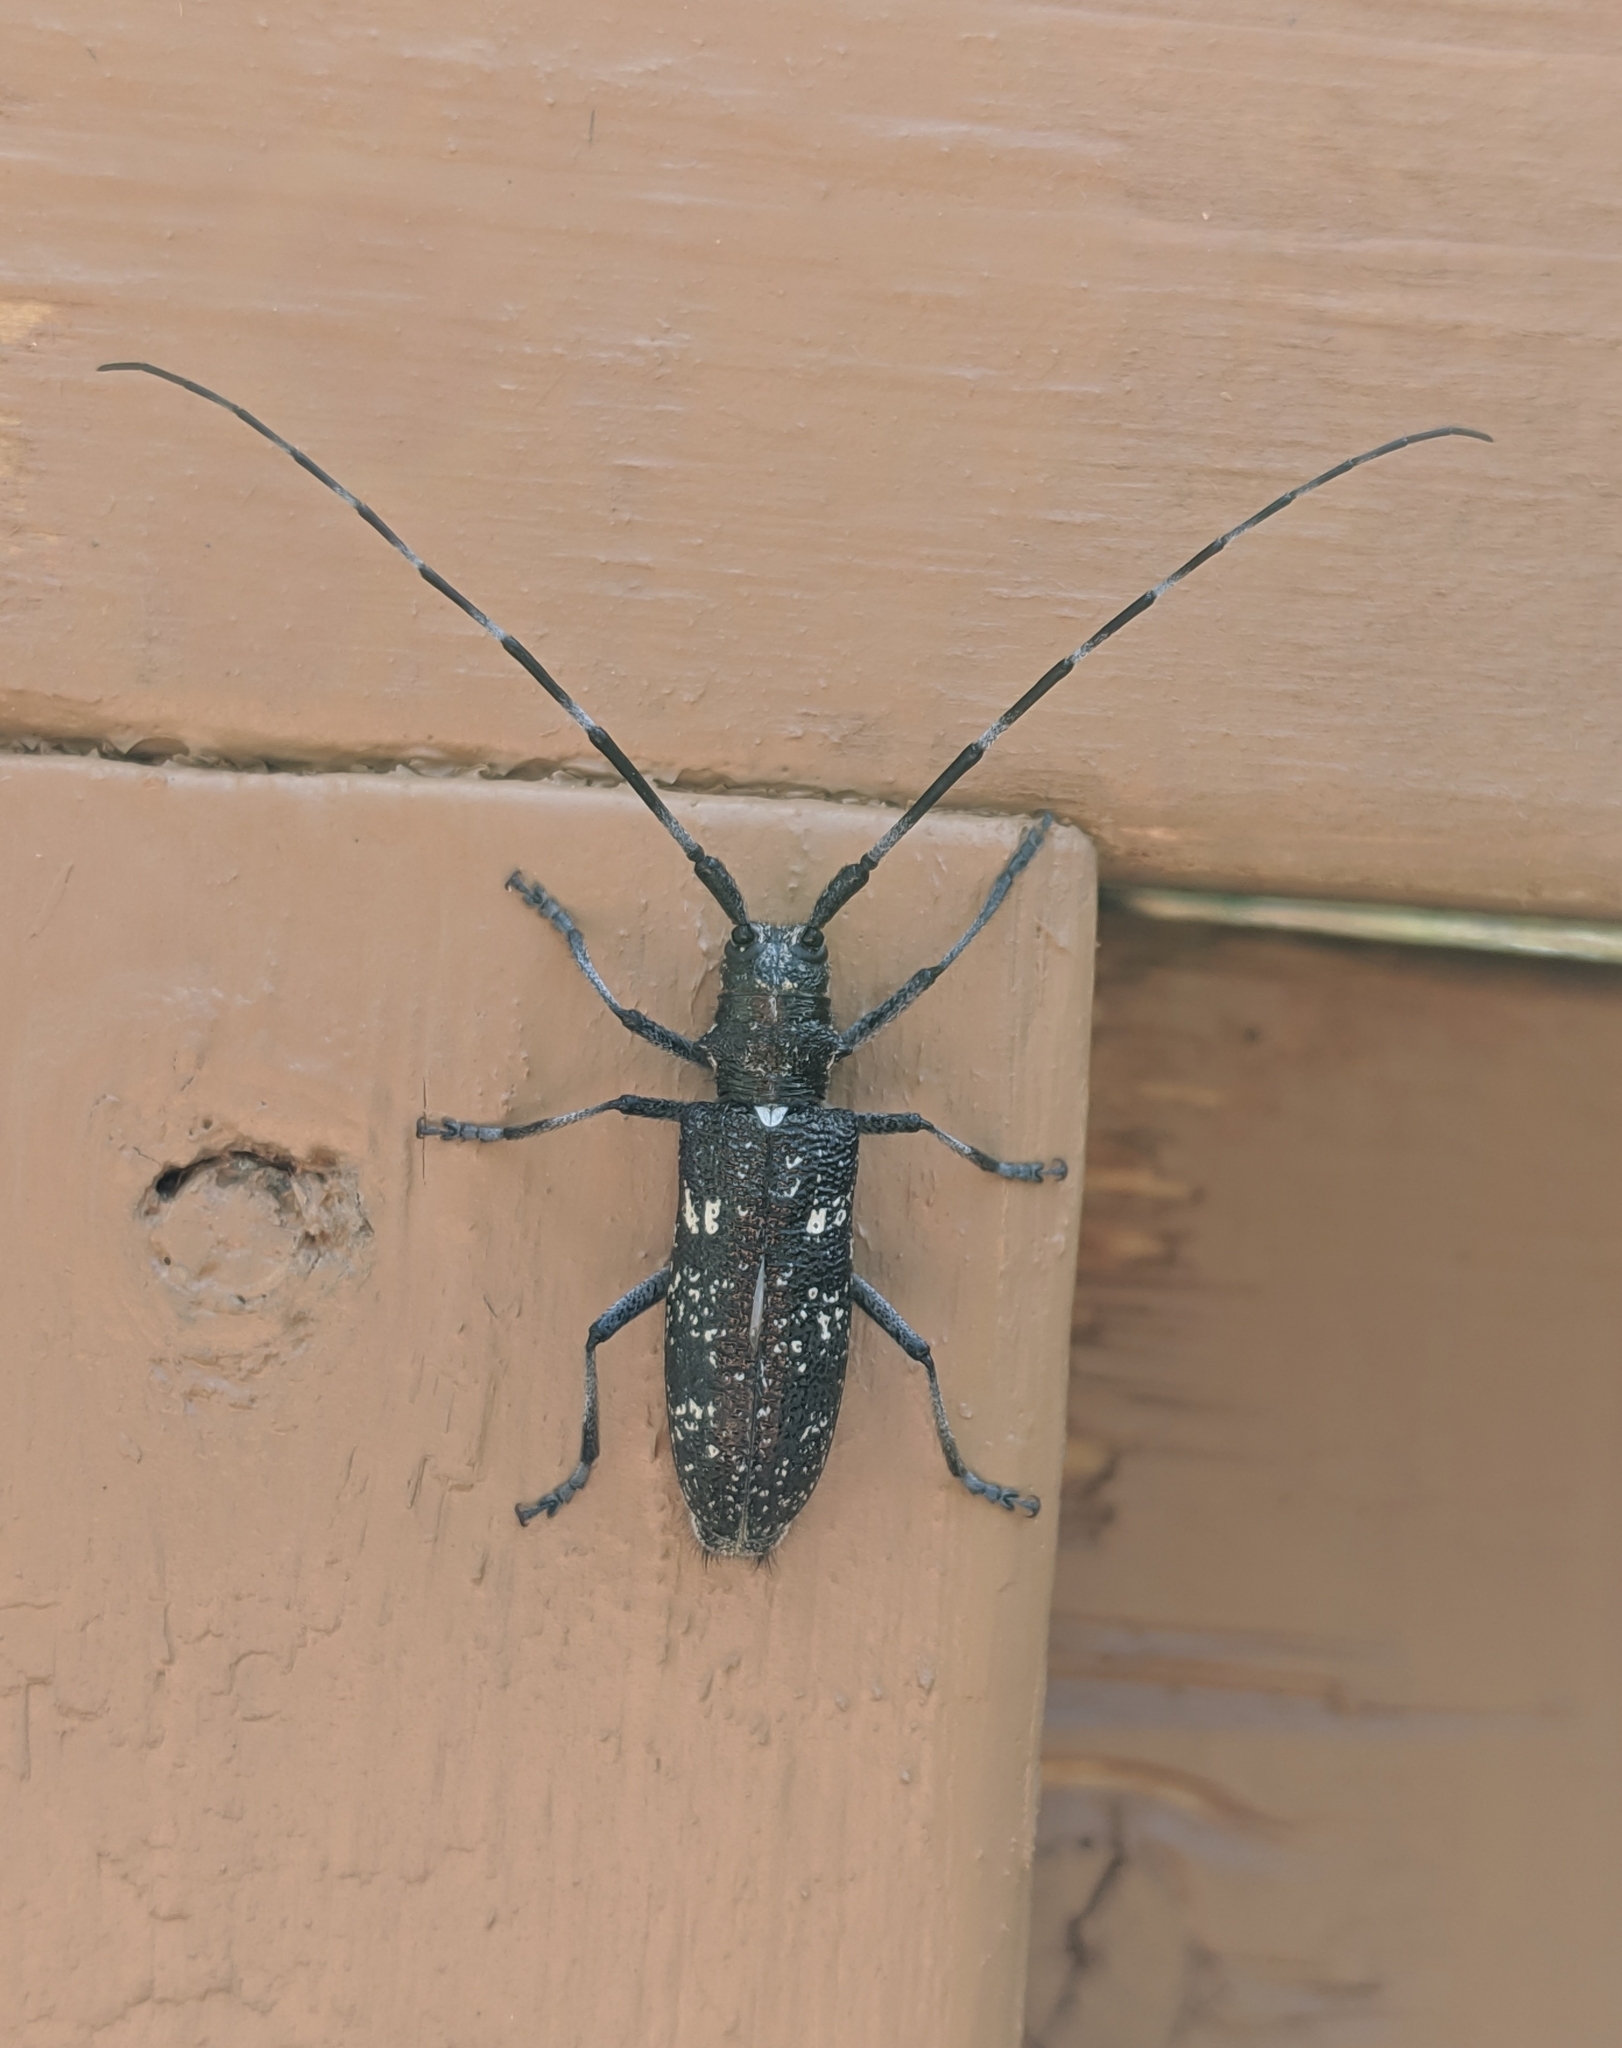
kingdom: Animalia
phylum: Arthropoda
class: Insecta
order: Coleoptera
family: Cerambycidae
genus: Monochamus
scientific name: Monochamus scutellatus
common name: White-spotted sawyer beetle
